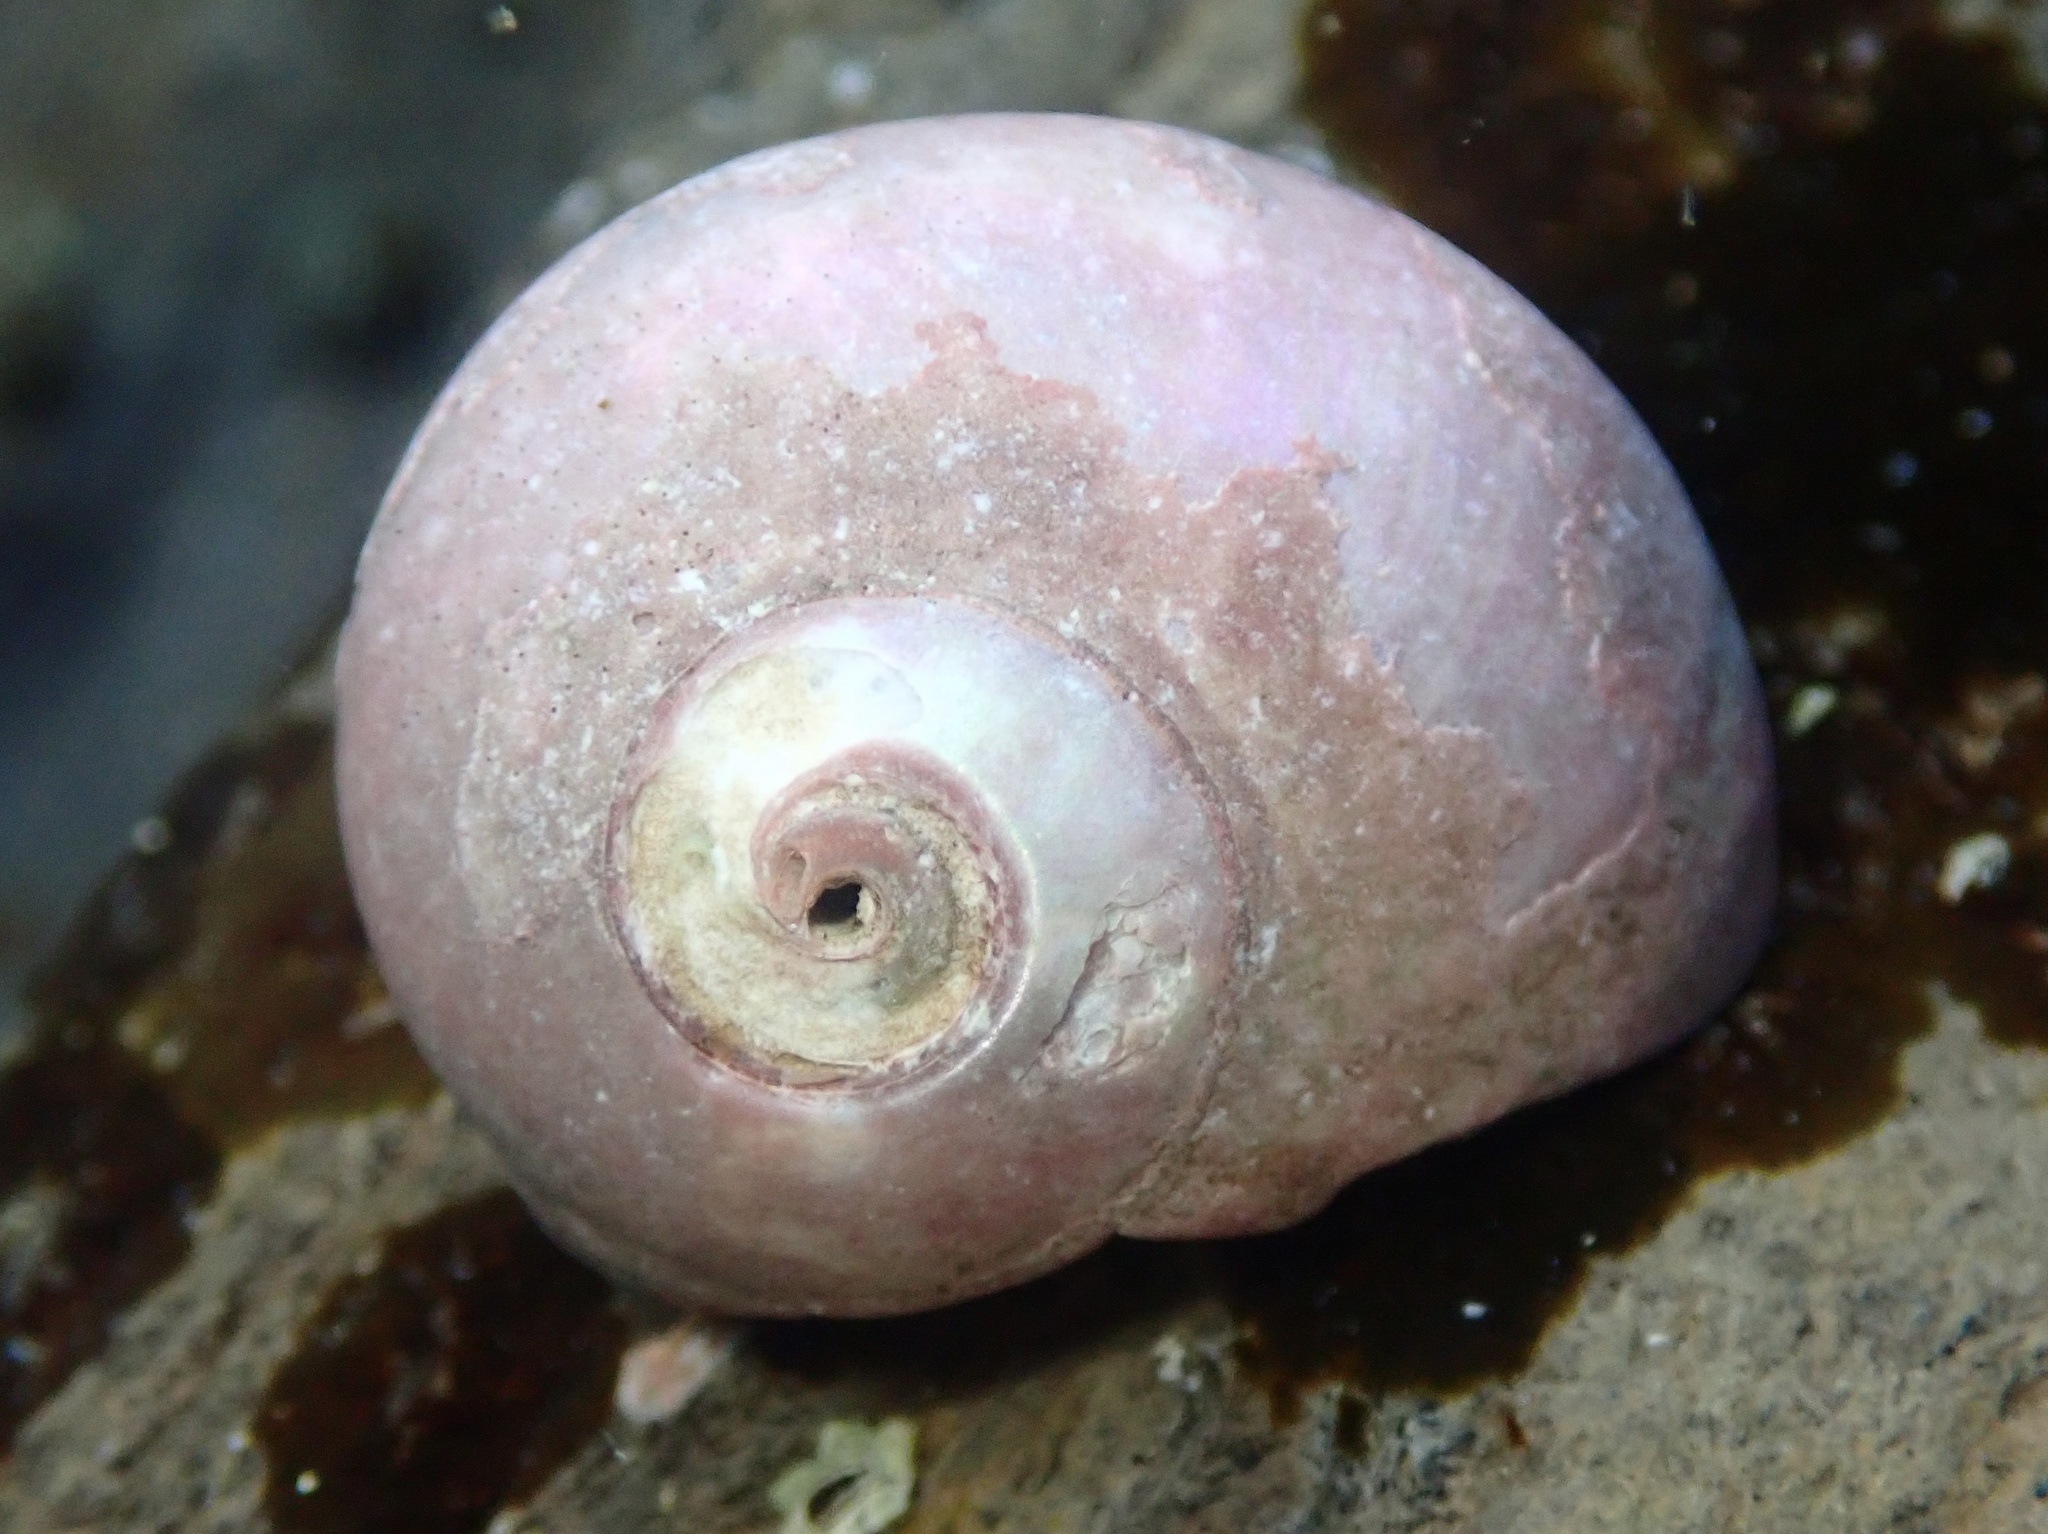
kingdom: Animalia
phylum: Mollusca
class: Gastropoda
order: Trochida
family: Tegulidae
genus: Norrisia
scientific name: Norrisia norrisii
